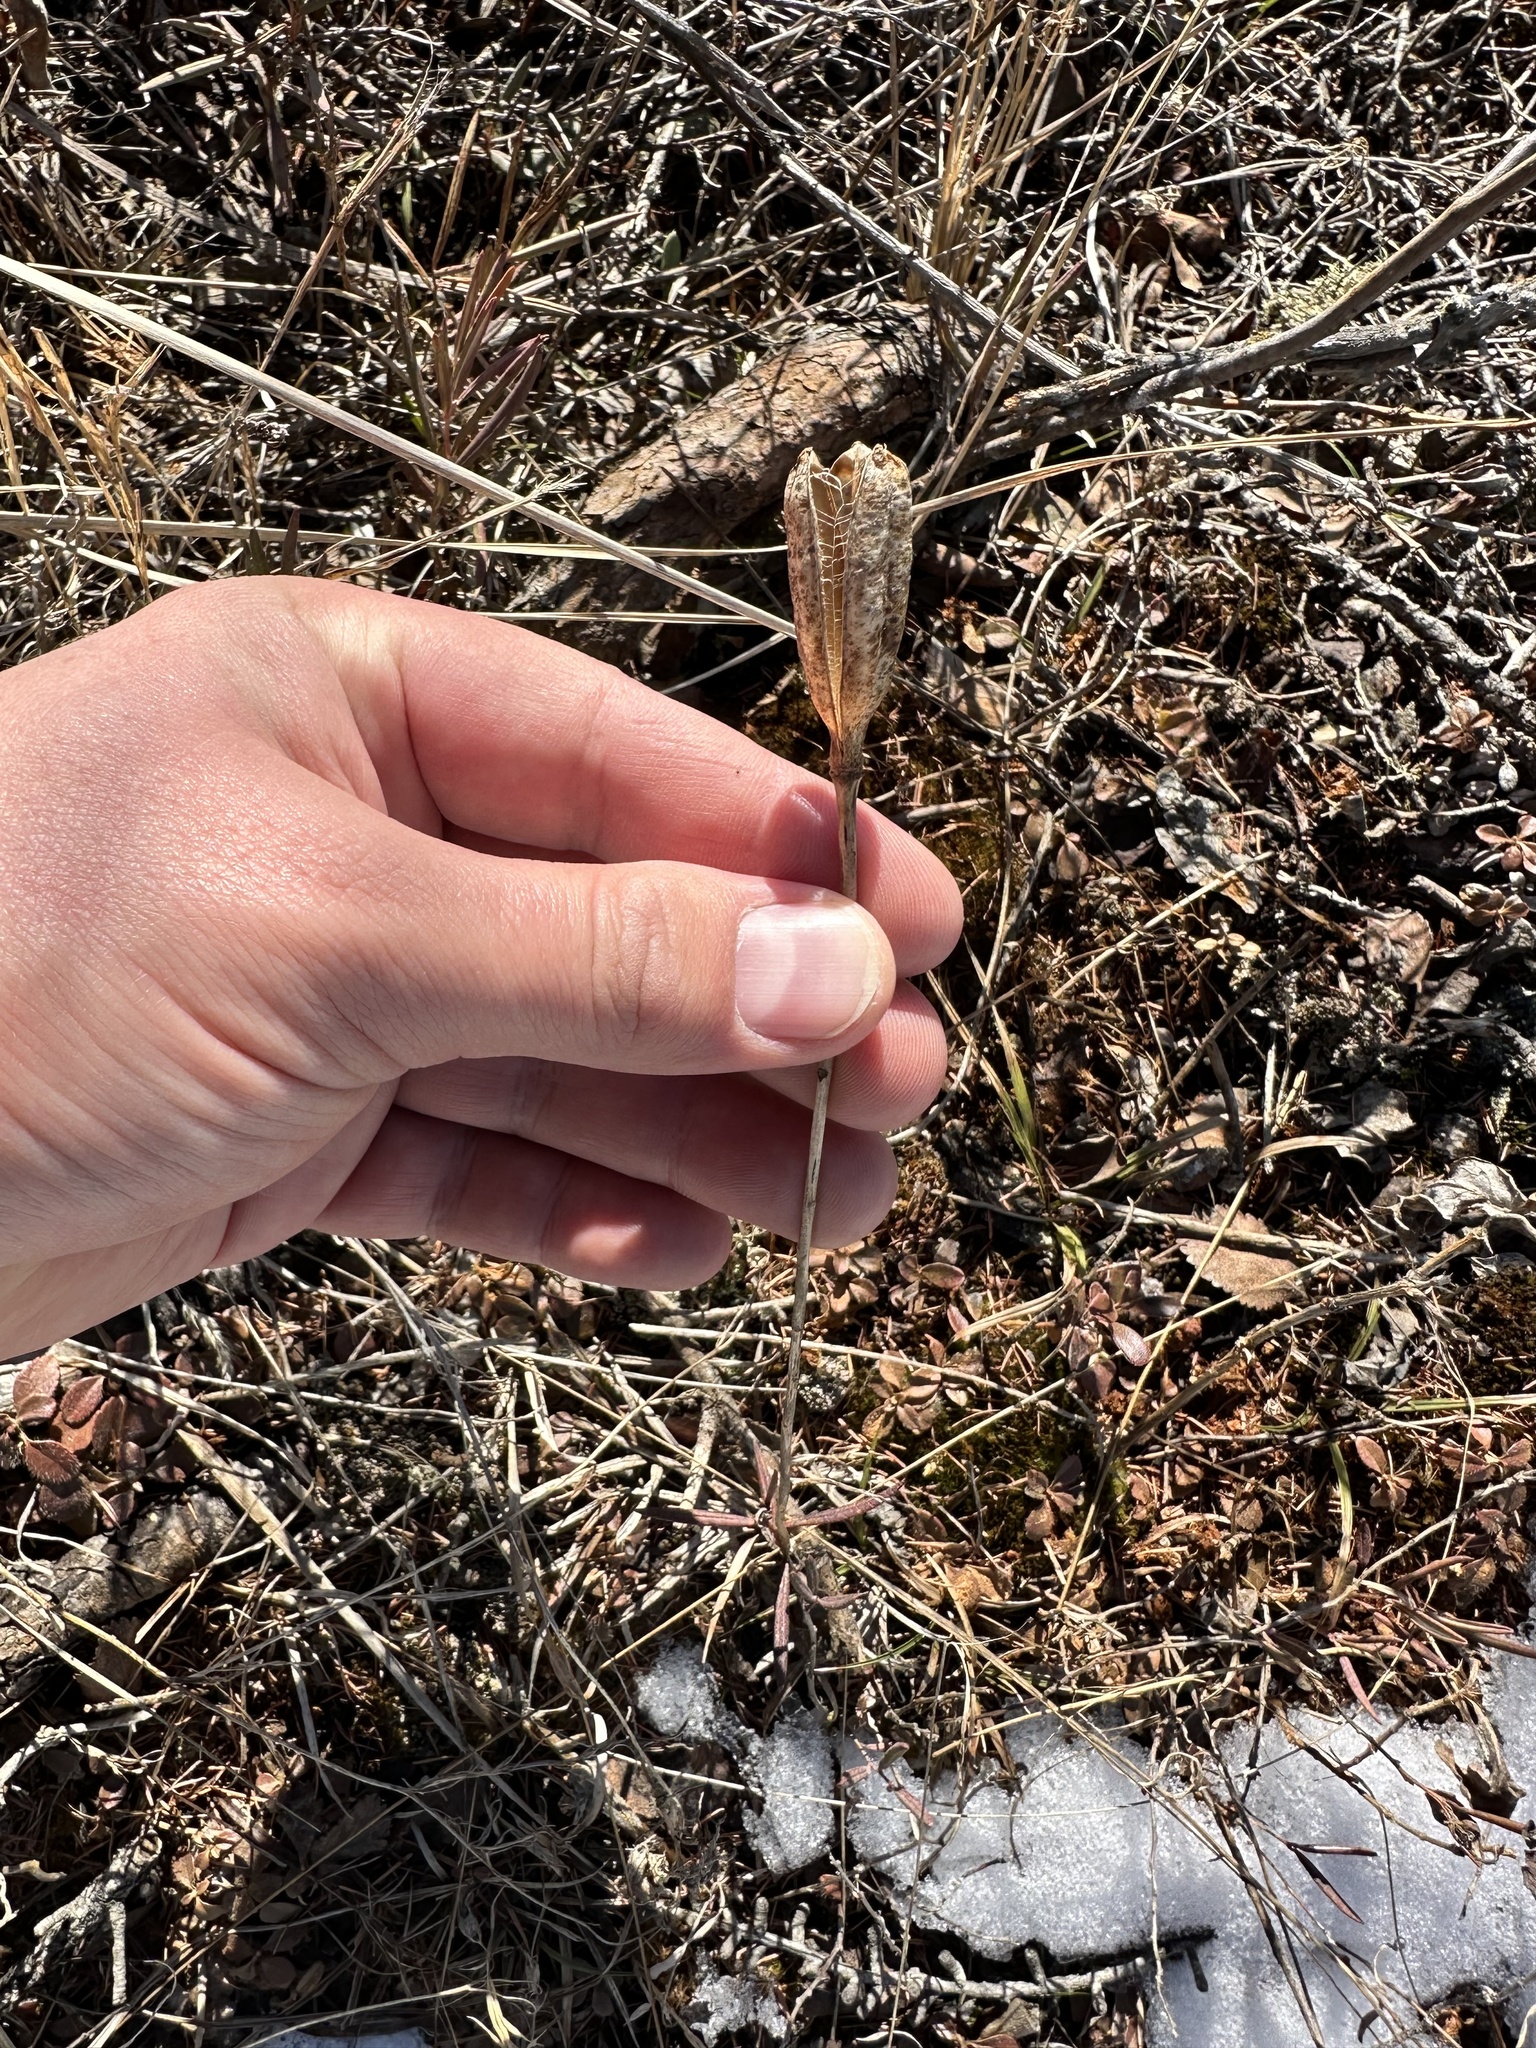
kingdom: Plantae
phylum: Tracheophyta
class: Liliopsida
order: Liliales
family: Liliaceae
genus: Lilium
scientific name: Lilium philadelphicum
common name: Red lily
